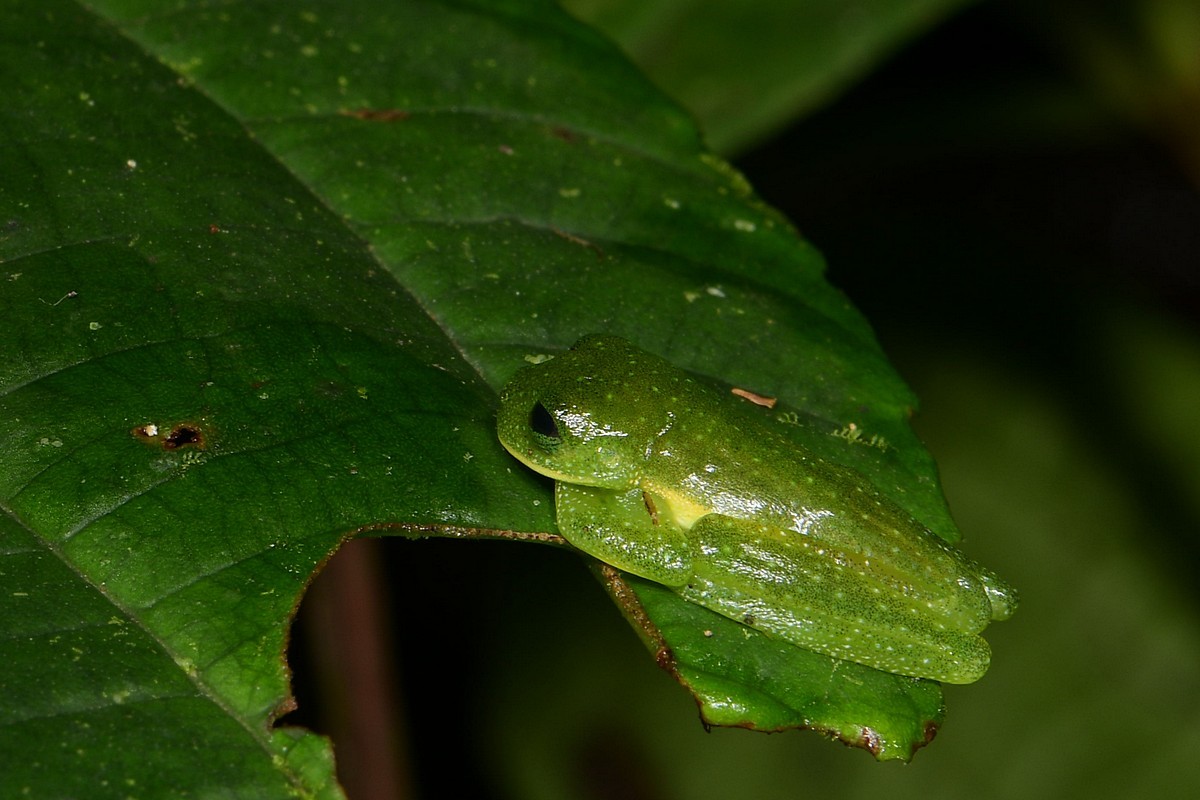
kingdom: Animalia
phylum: Chordata
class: Amphibia
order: Anura
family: Centrolenidae
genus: Centrolene
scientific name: Centrolene ballux
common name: Burrowes' giant glass frog
